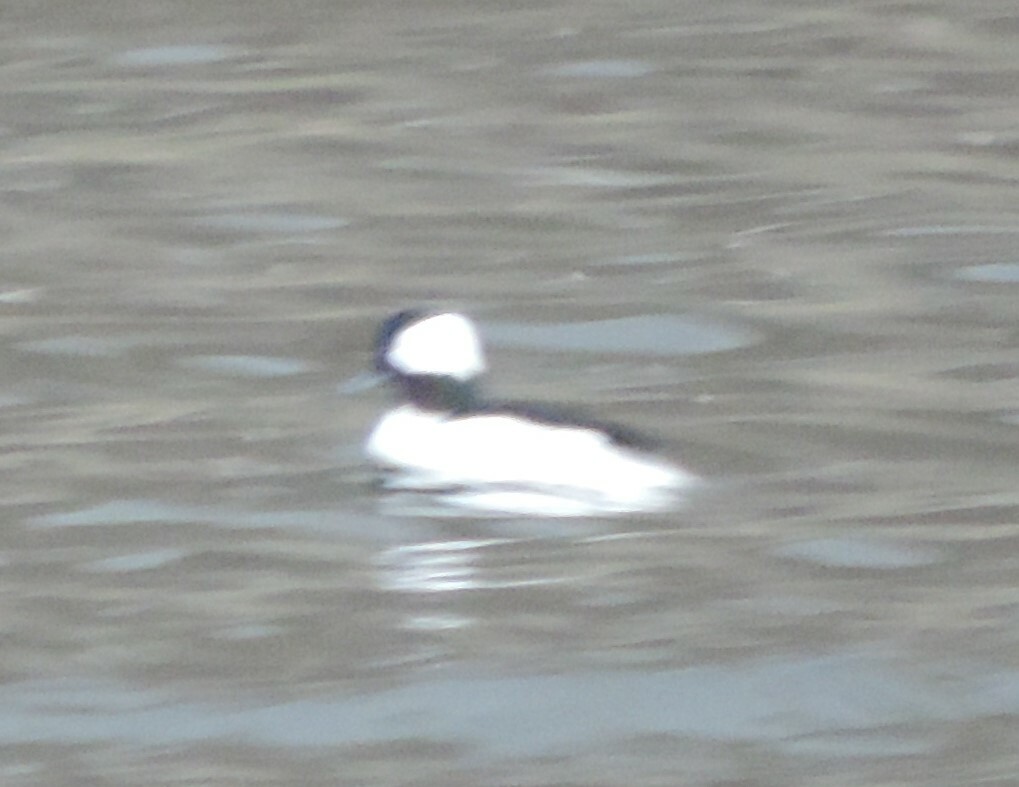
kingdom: Animalia
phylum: Chordata
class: Aves
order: Anseriformes
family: Anatidae
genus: Bucephala
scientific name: Bucephala albeola
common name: Bufflehead
